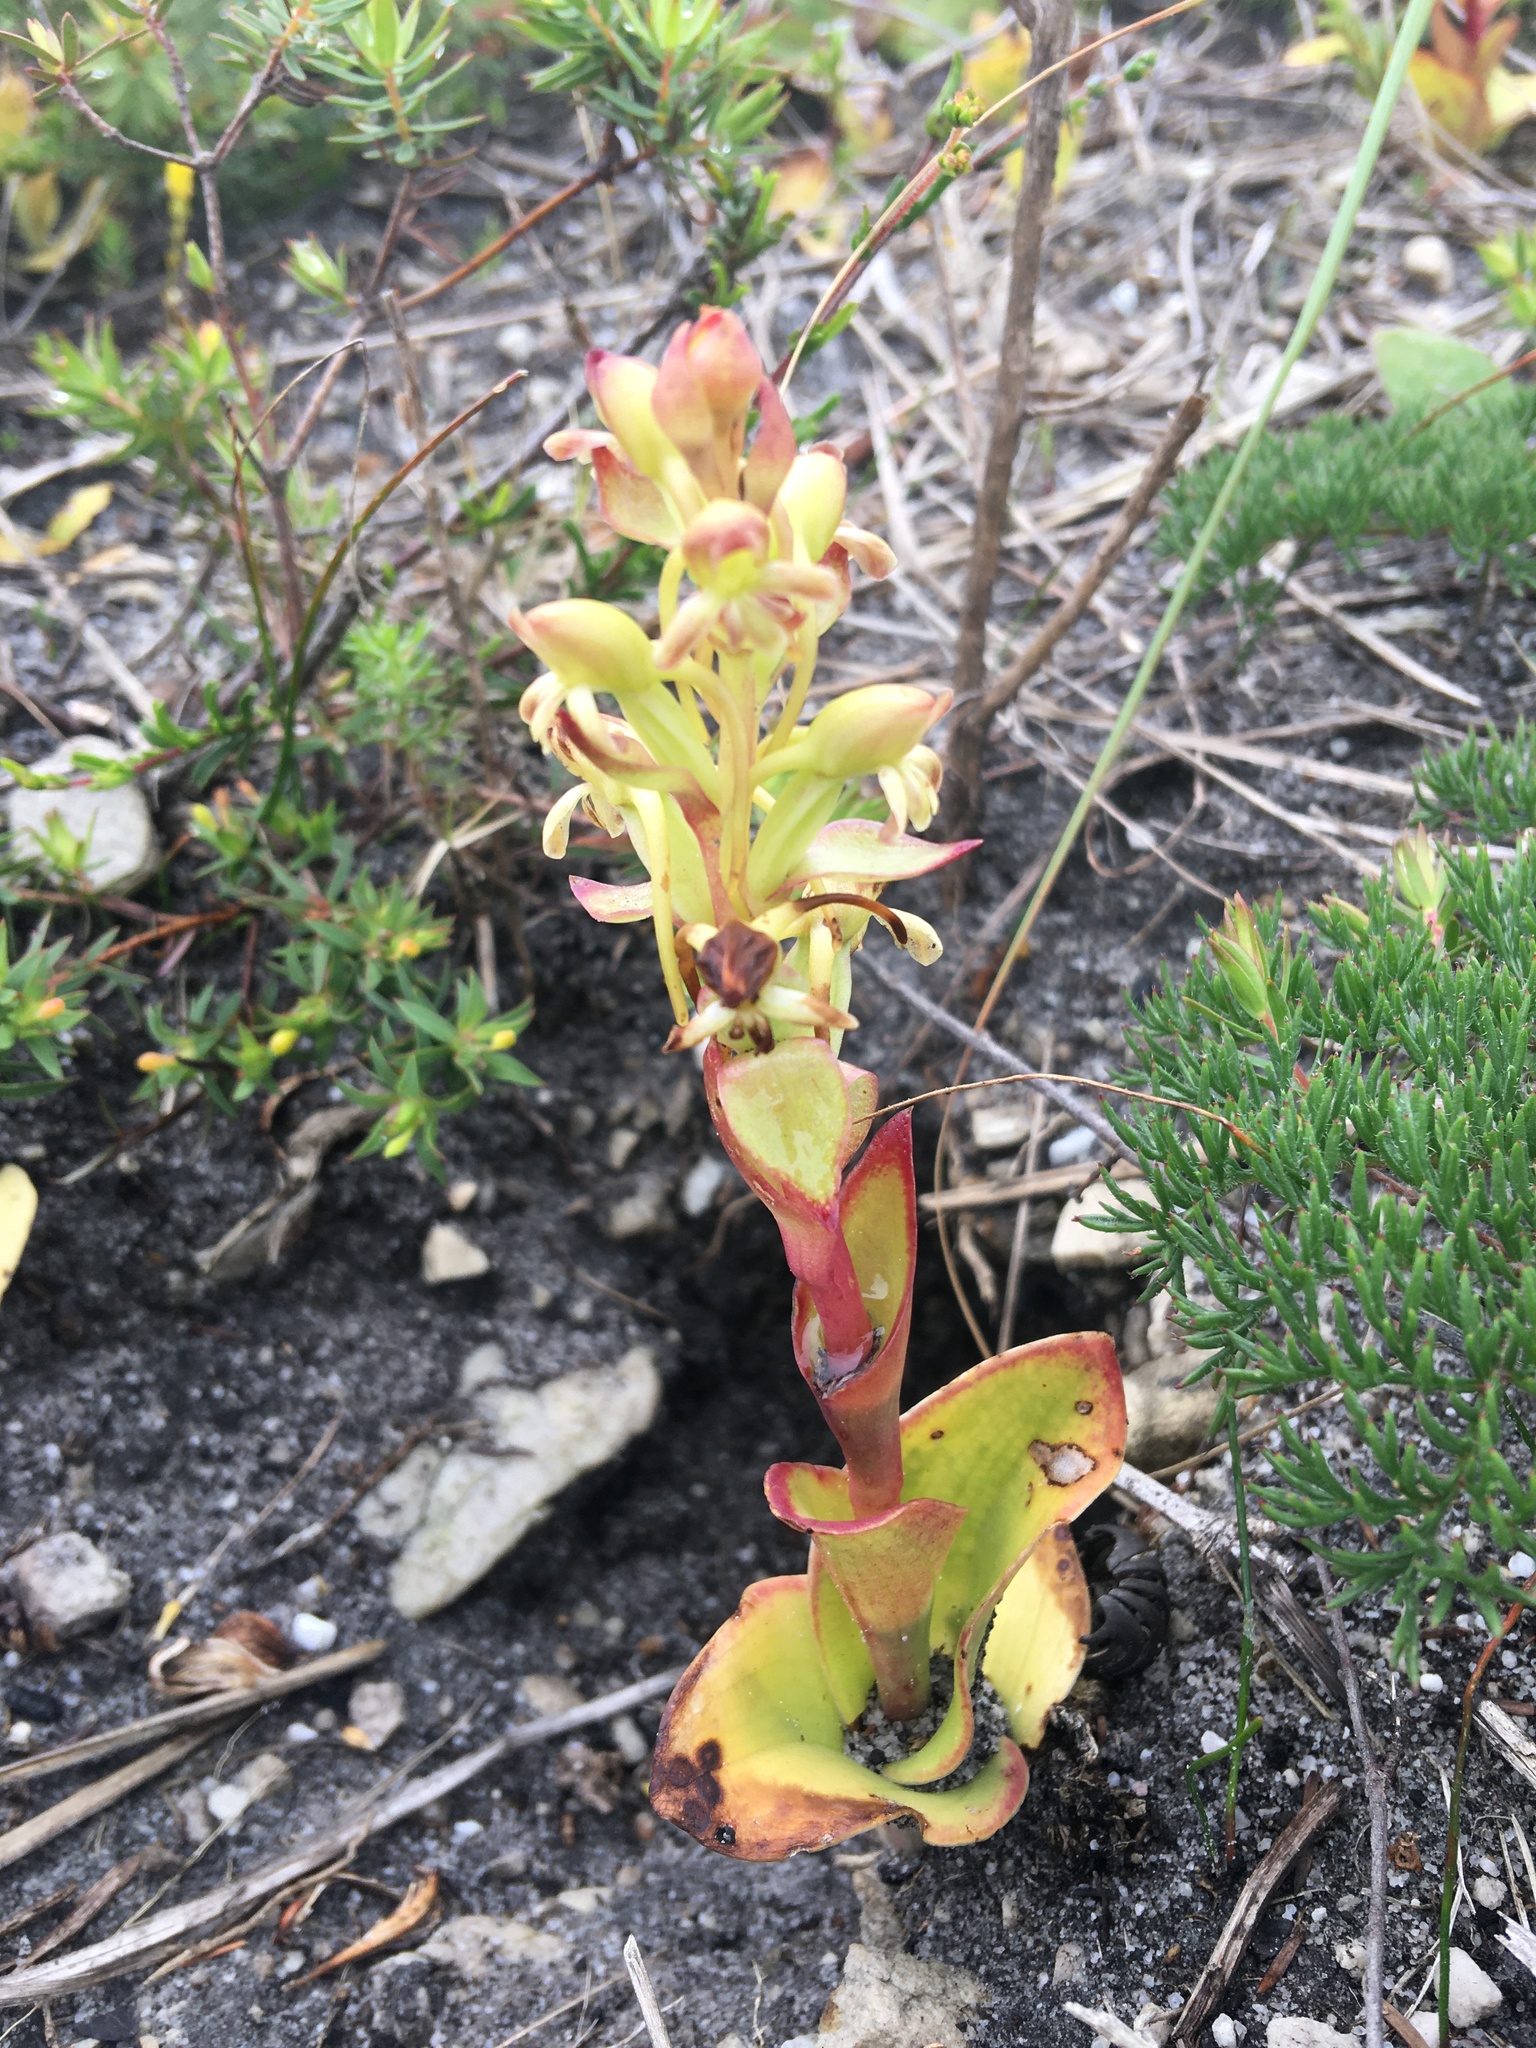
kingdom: Plantae
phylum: Tracheophyta
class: Liliopsida
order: Asparagales
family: Orchidaceae
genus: Satyrium
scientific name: Satyrium odorum
